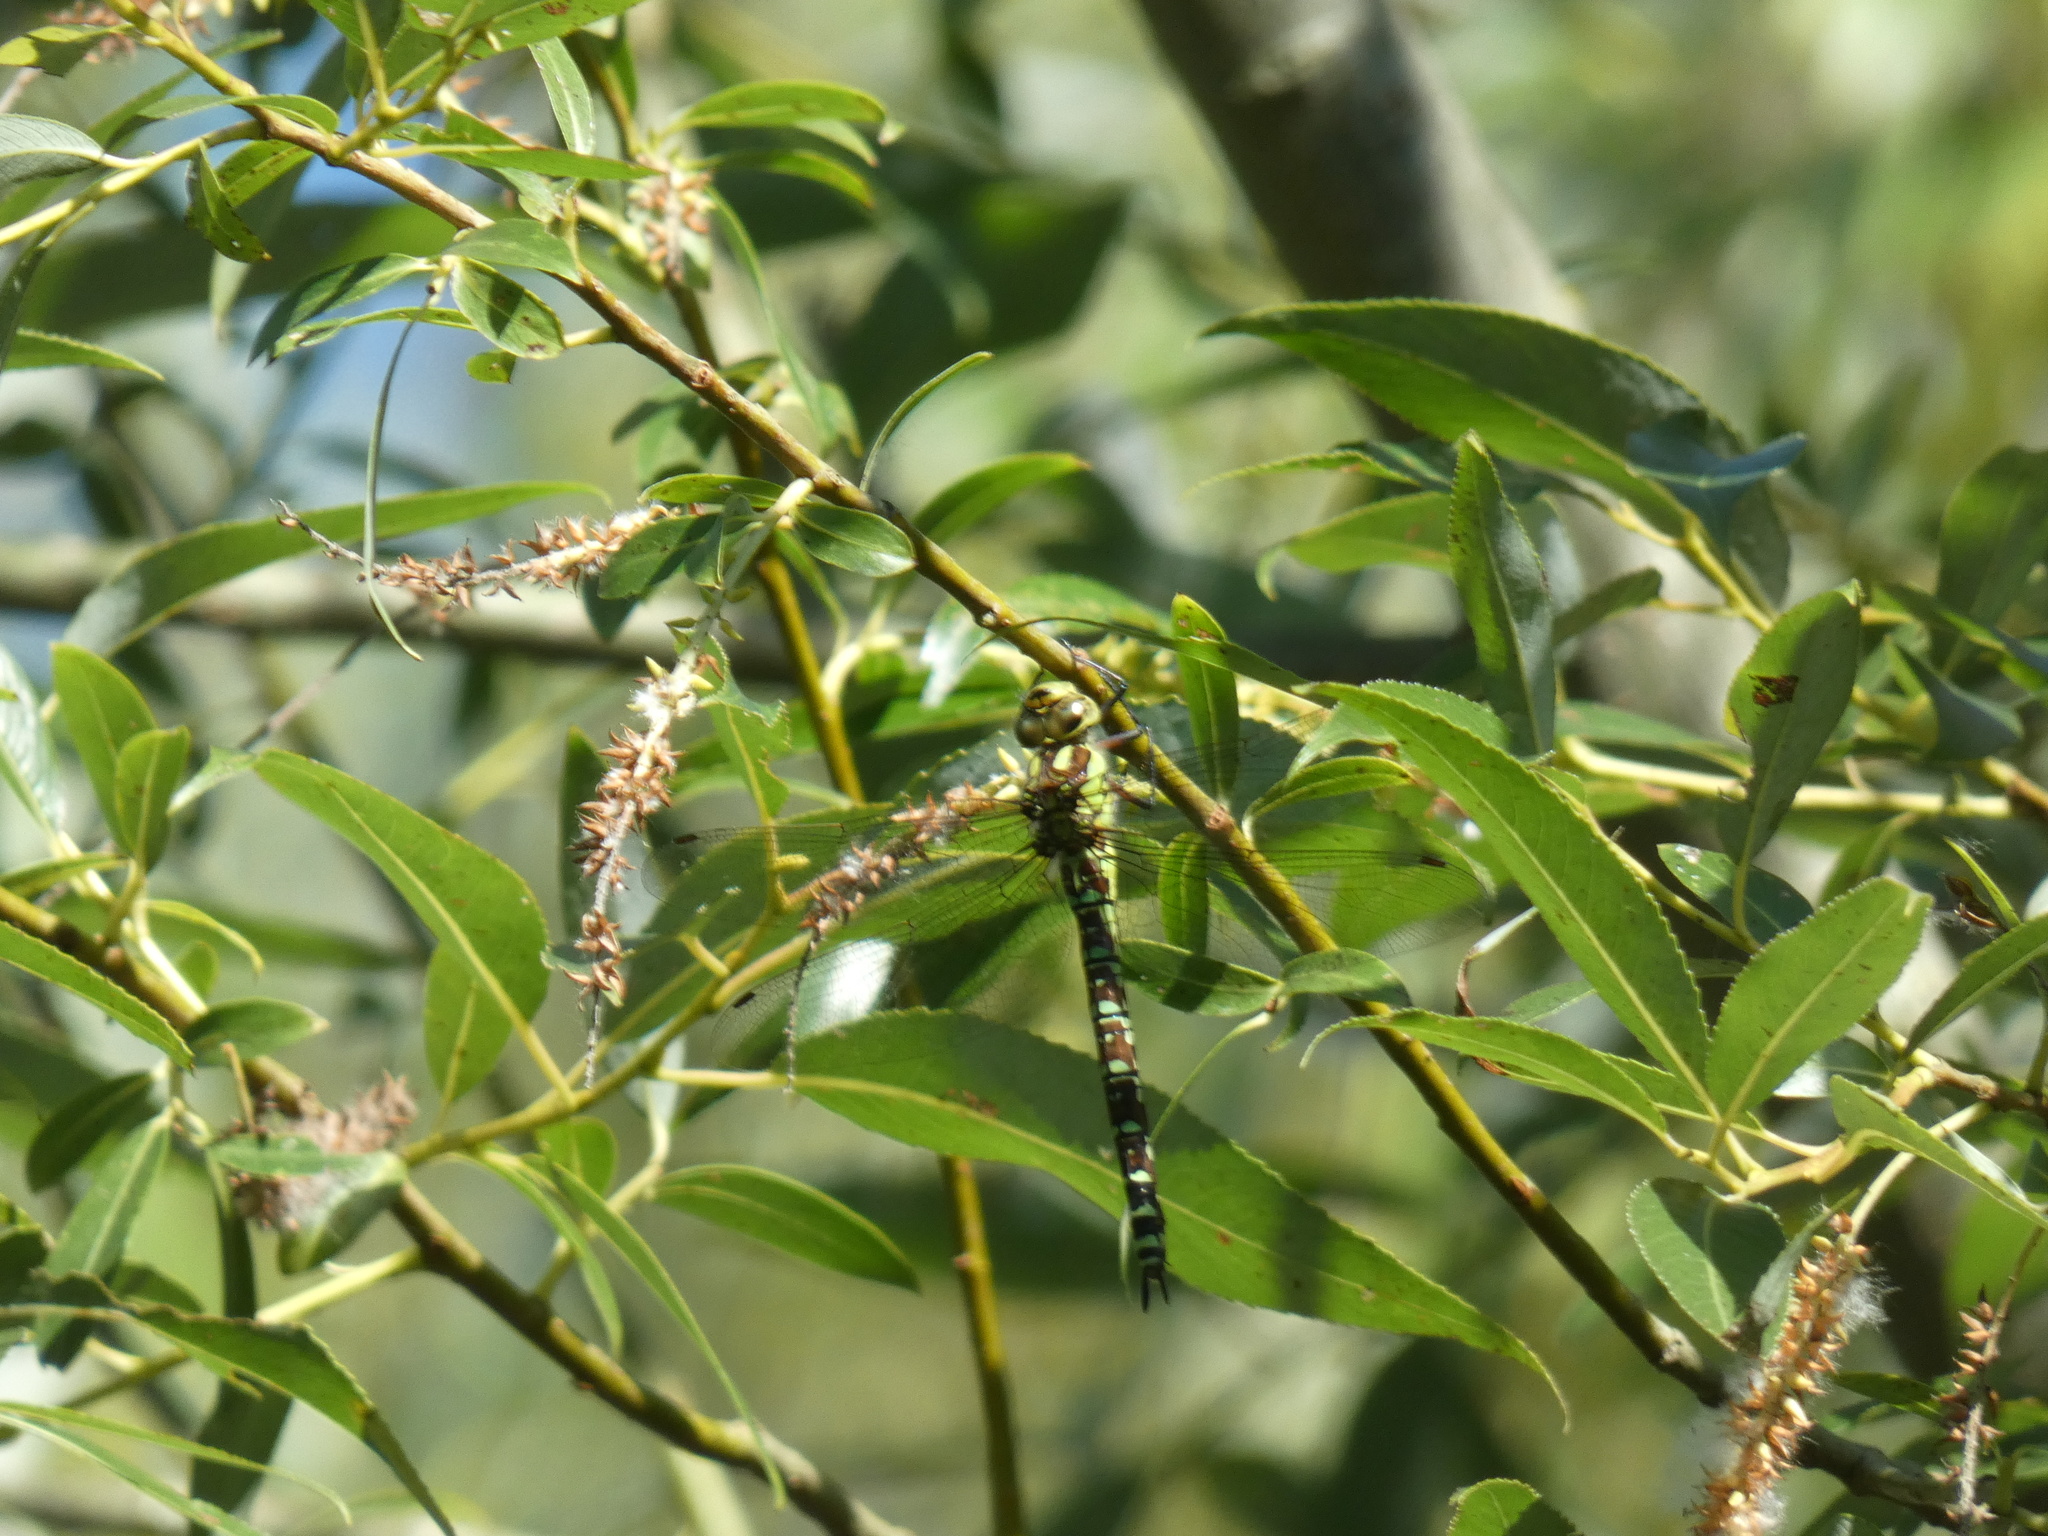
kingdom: Animalia
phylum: Arthropoda
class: Insecta
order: Odonata
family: Aeshnidae
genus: Aeshna
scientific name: Aeshna cyanea
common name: Southern hawker
